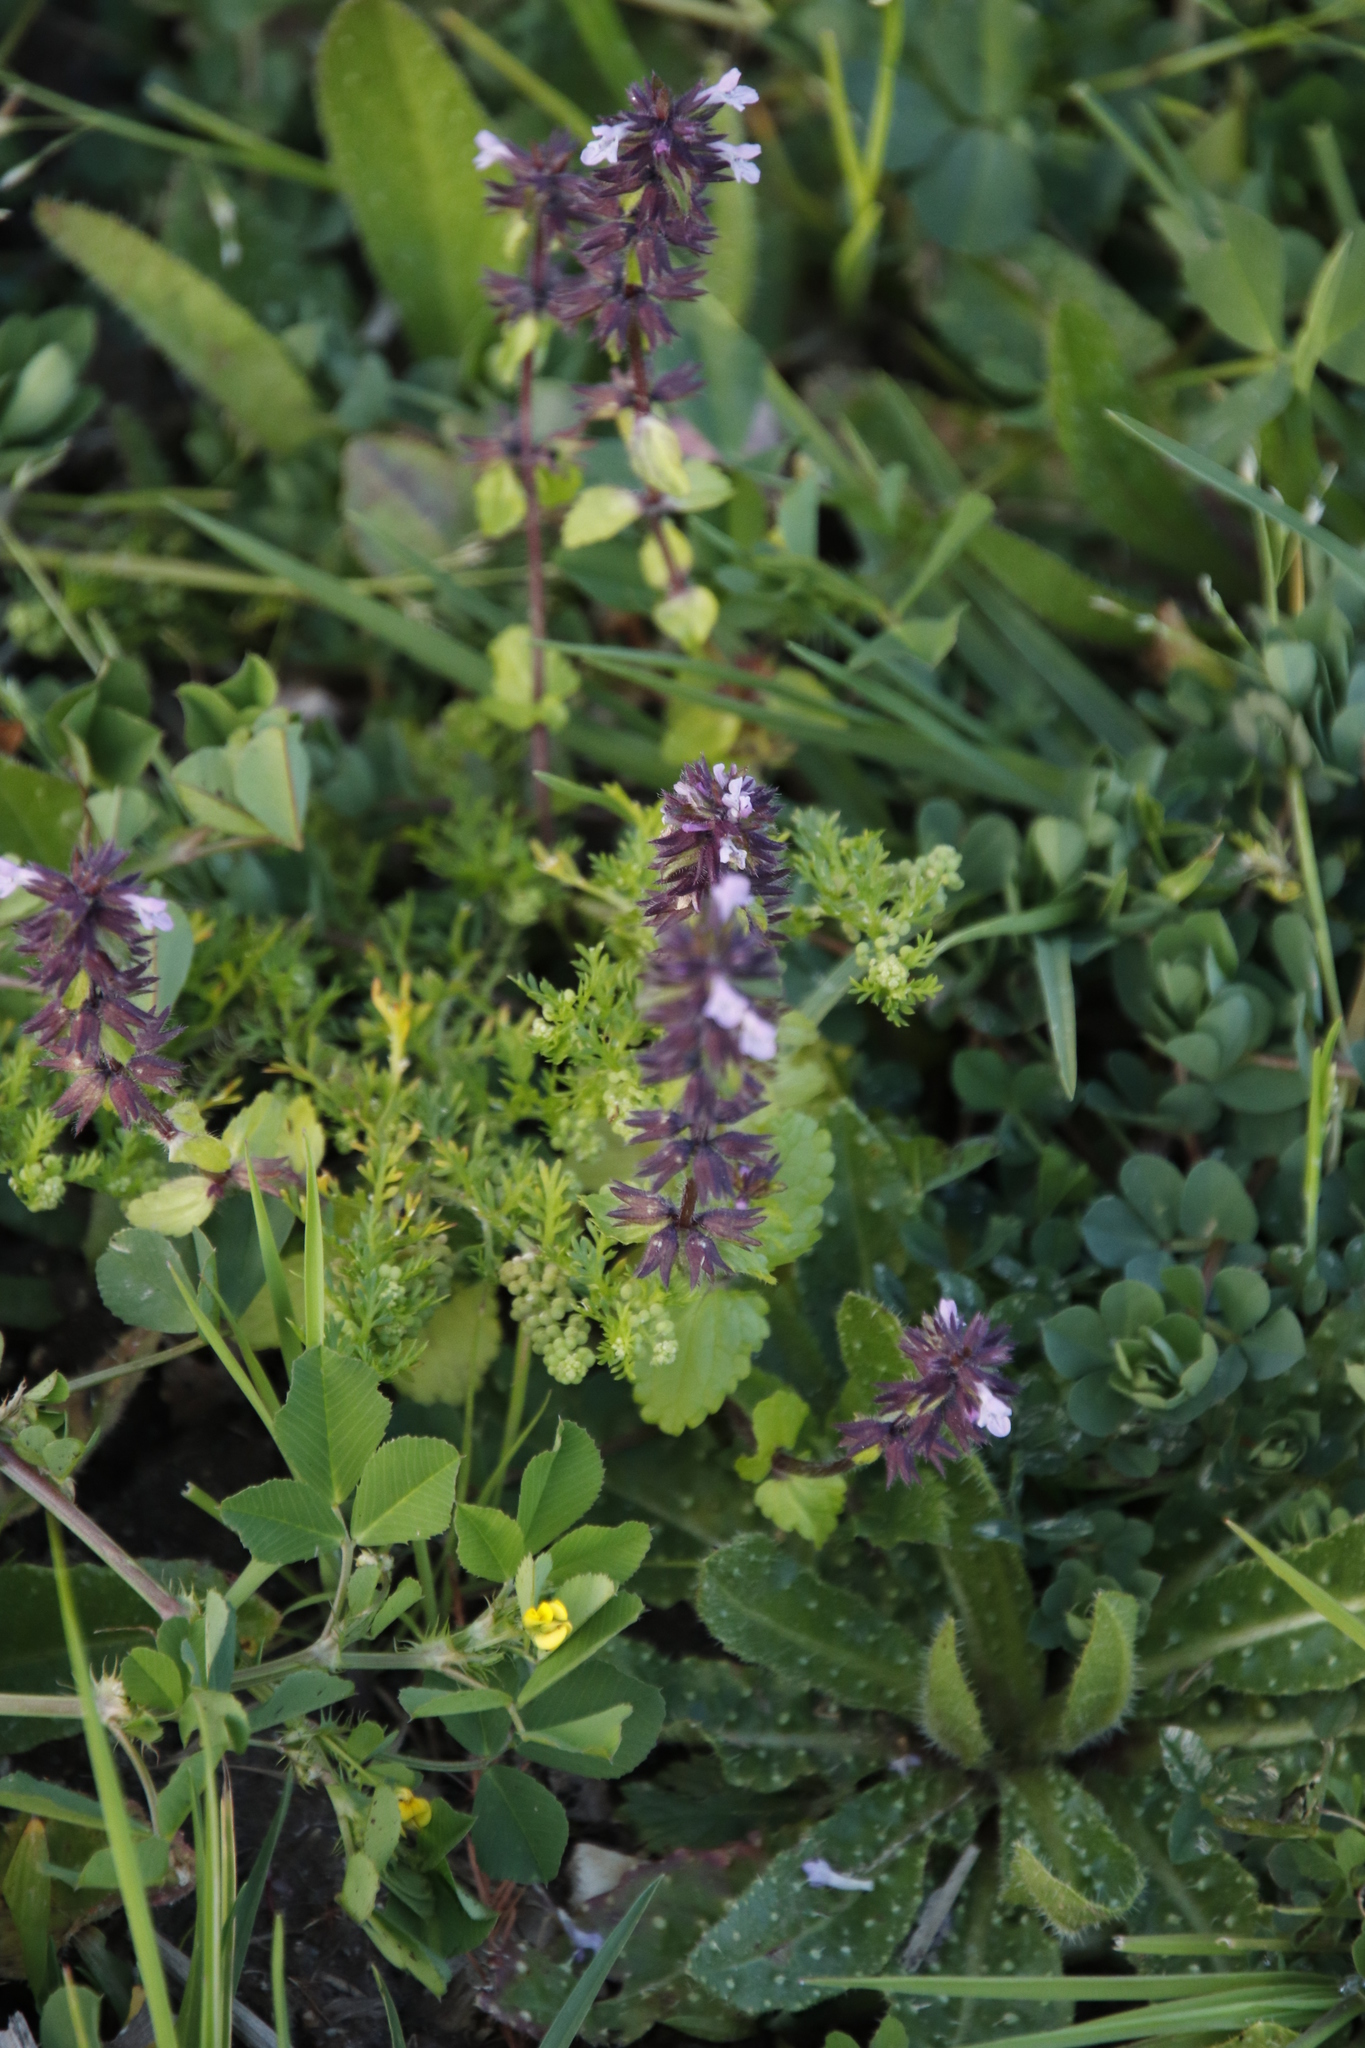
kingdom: Plantae
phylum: Tracheophyta
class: Magnoliopsida
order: Lamiales
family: Lamiaceae
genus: Stachys
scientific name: Stachys arvensis
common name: Field woundwort
